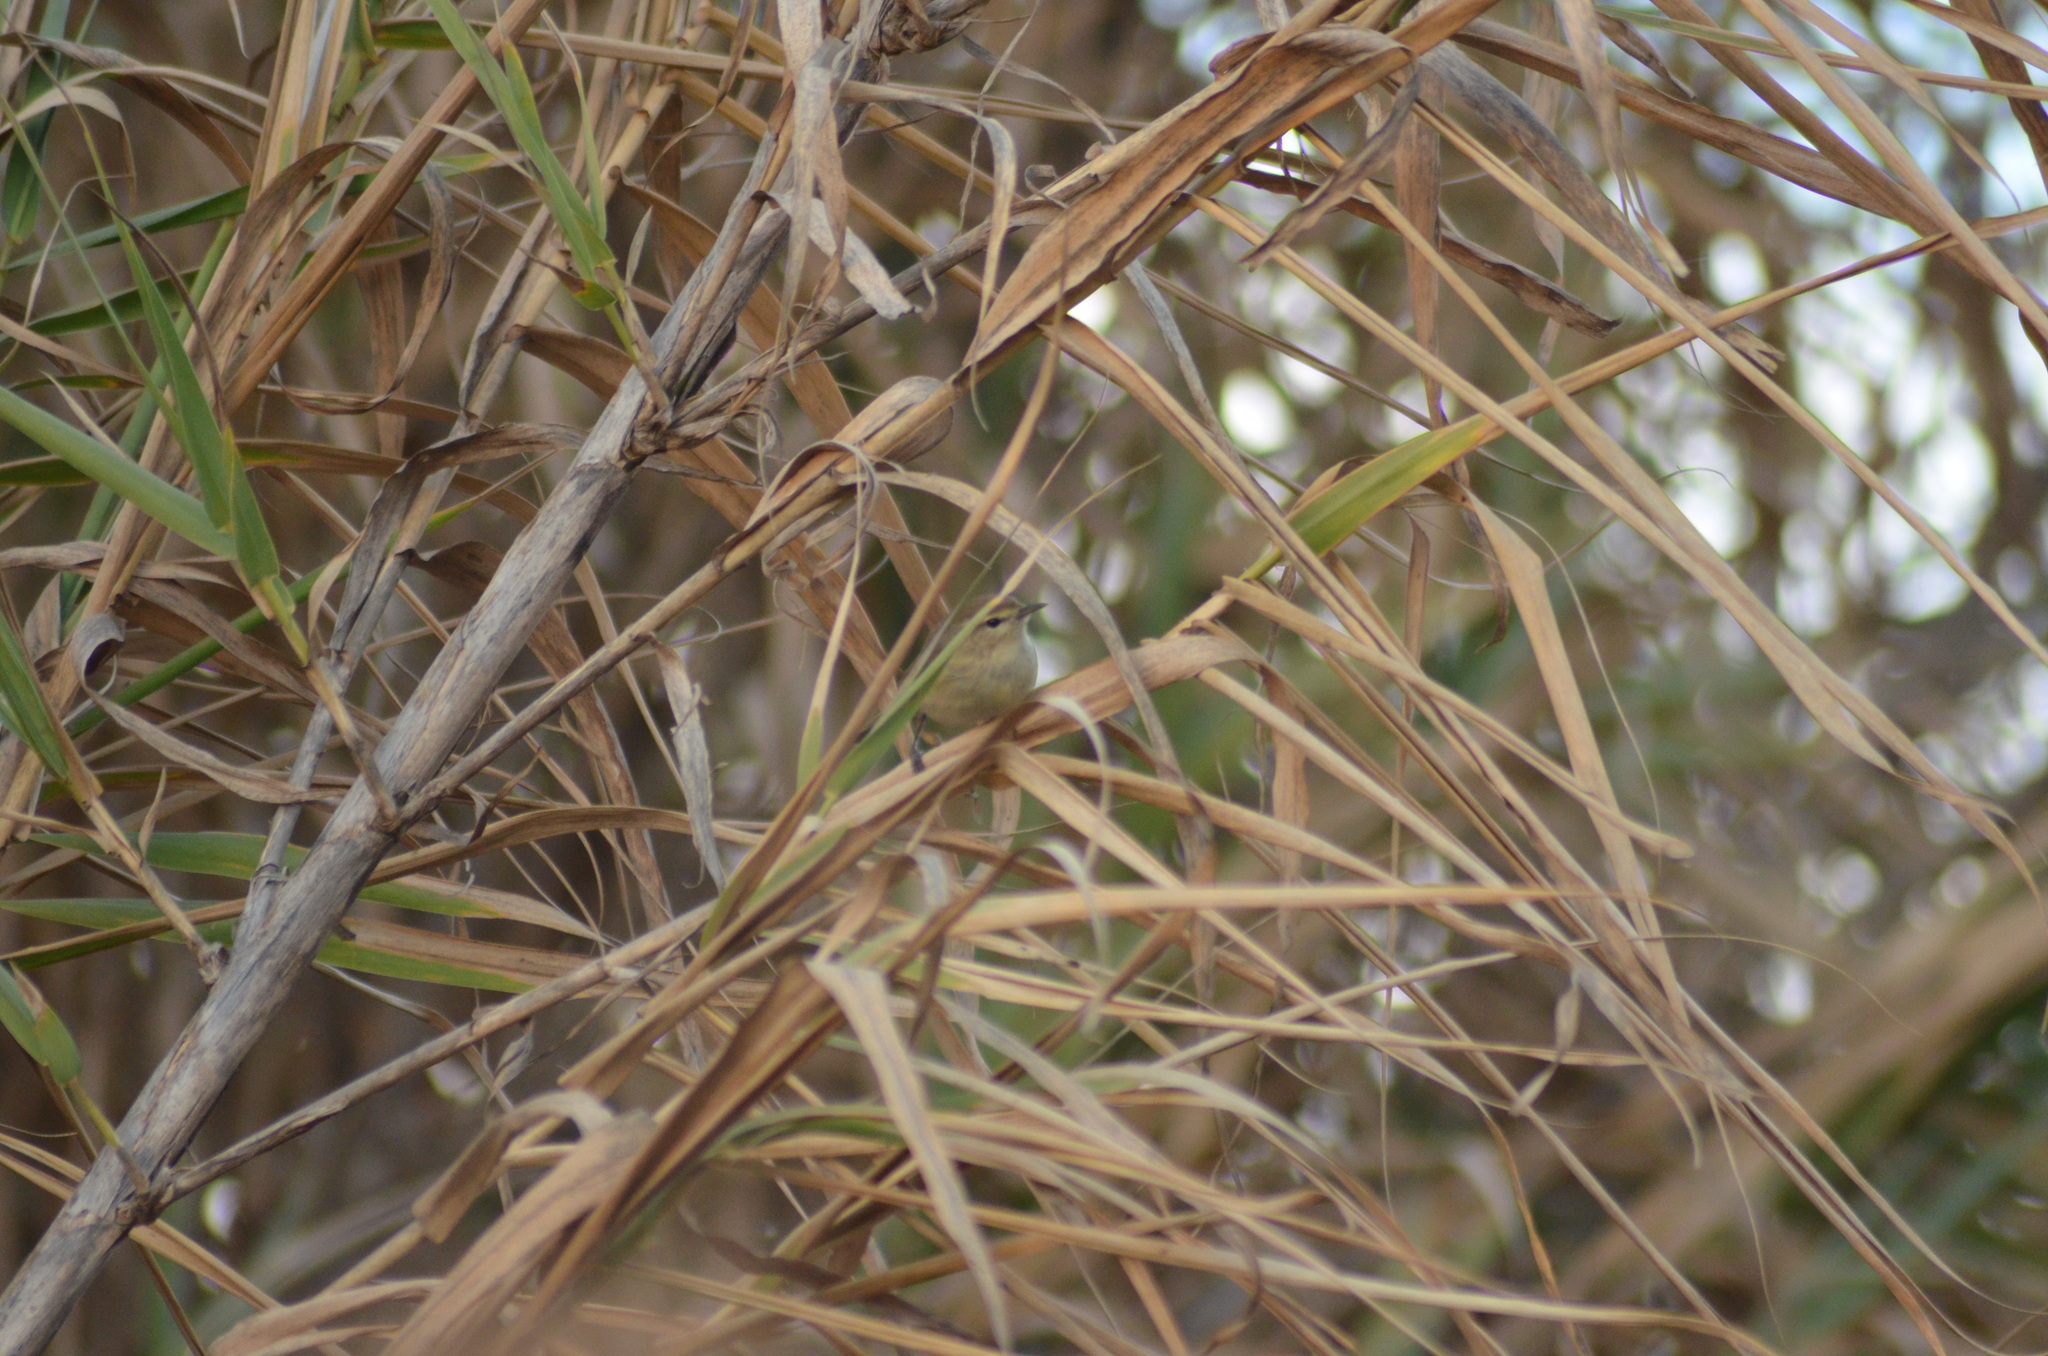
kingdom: Animalia
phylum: Chordata
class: Aves
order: Passeriformes
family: Phylloscopidae
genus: Phylloscopus
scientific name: Phylloscopus collybita
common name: Common chiffchaff
